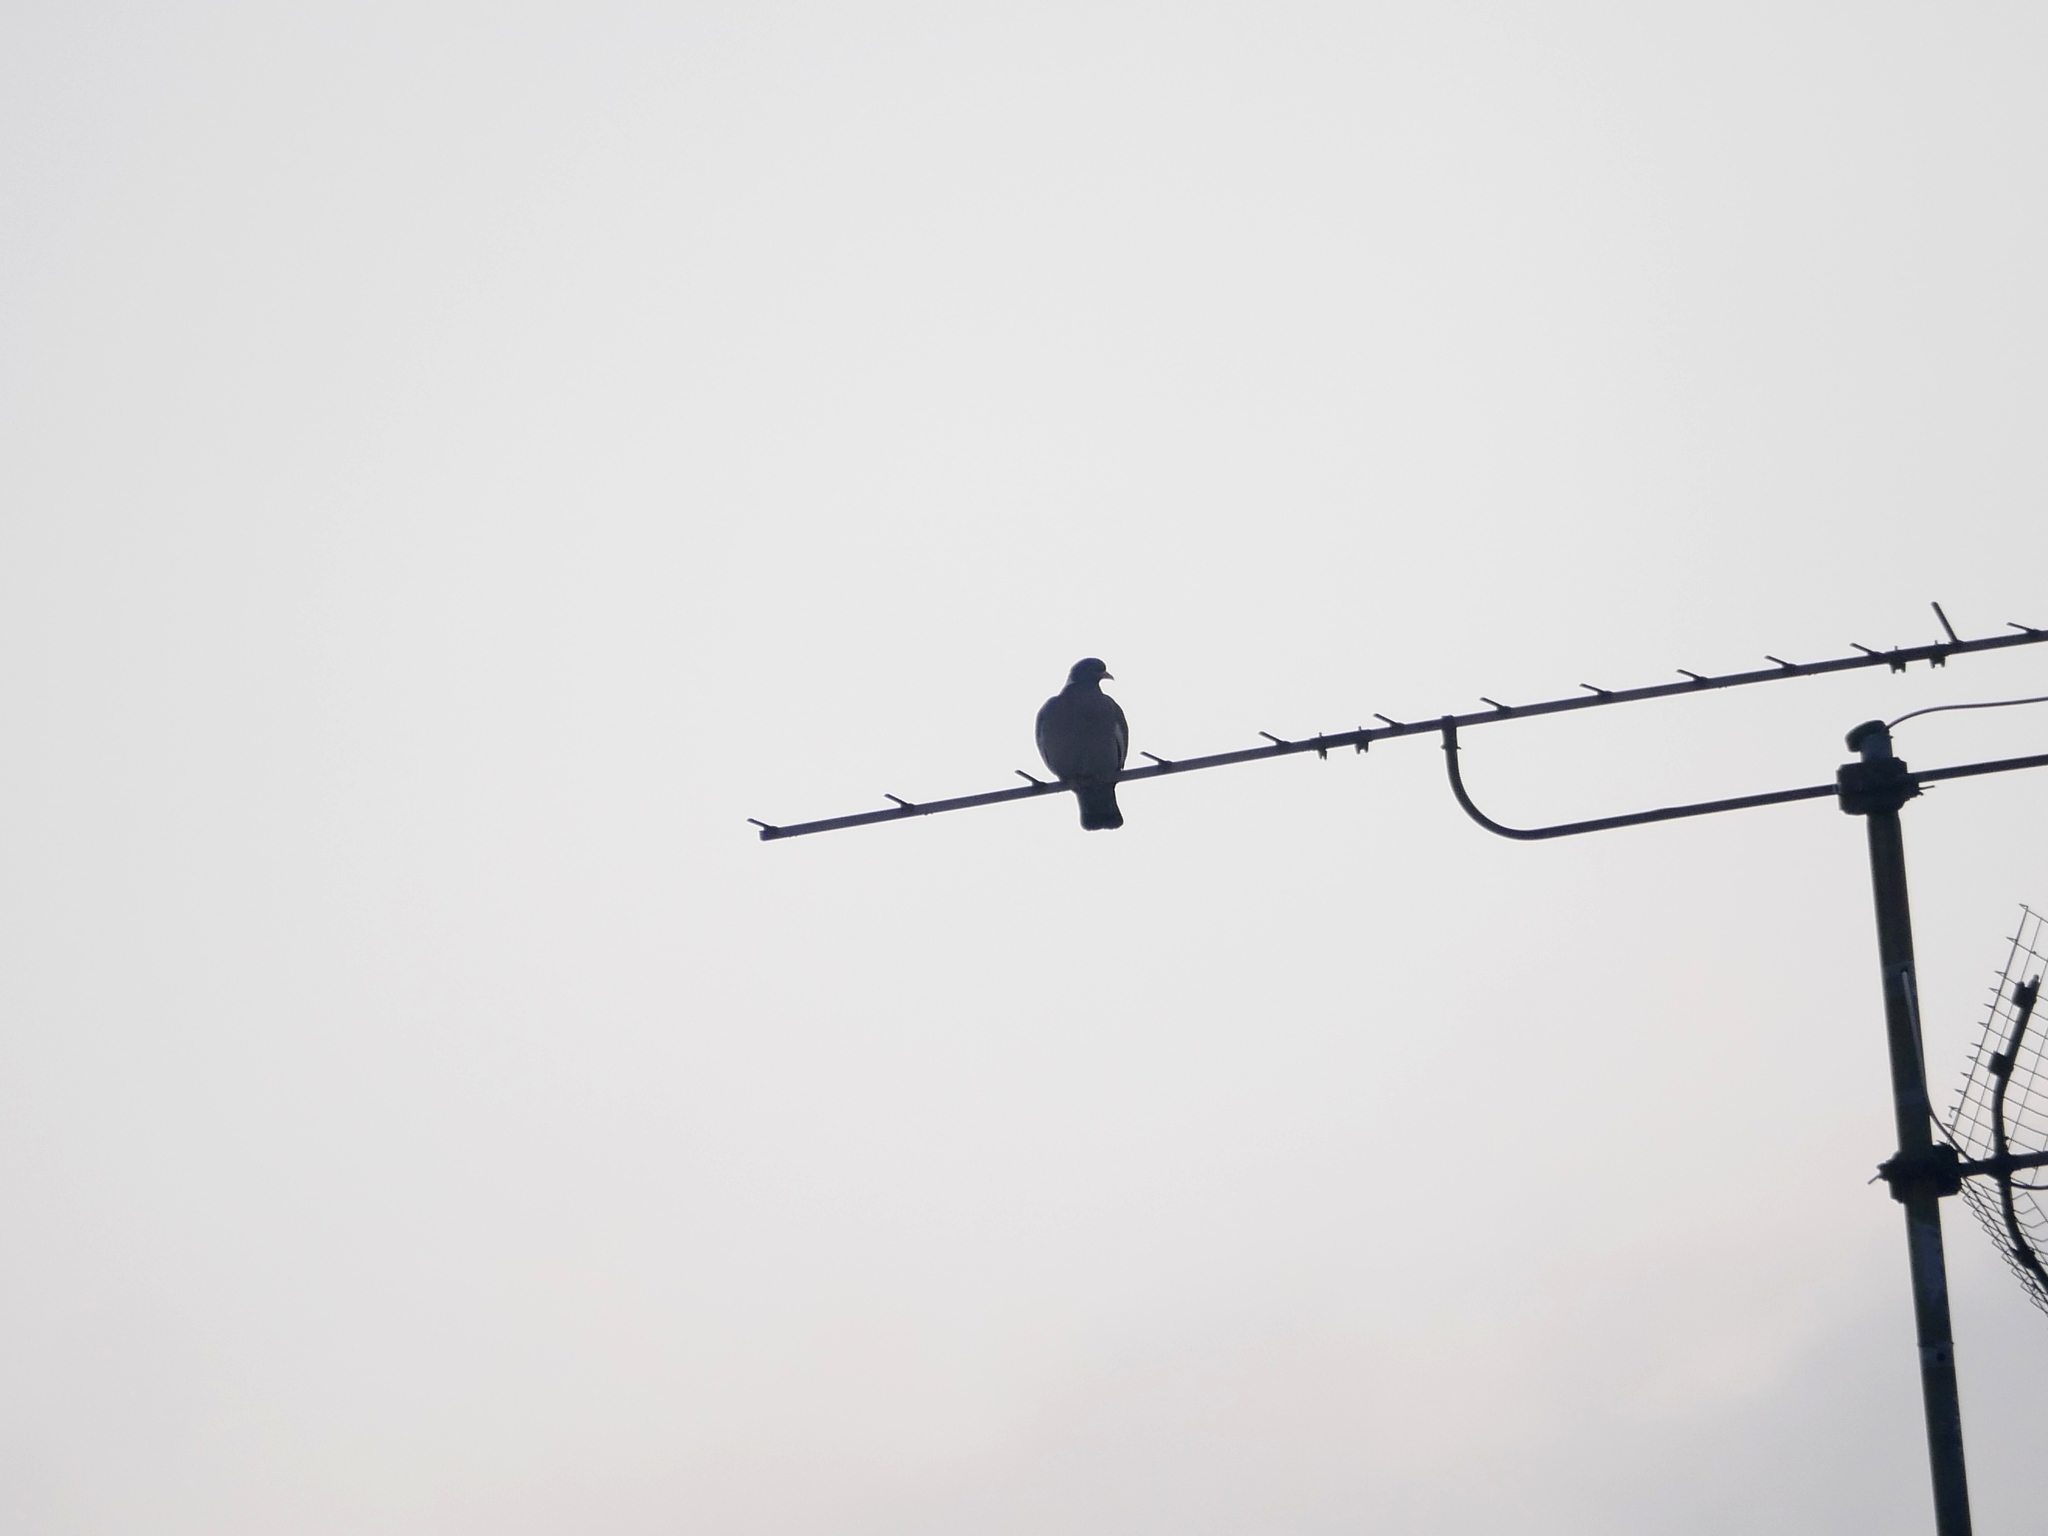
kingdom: Animalia
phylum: Chordata
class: Aves
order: Columbiformes
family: Columbidae
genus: Columba
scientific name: Columba palumbus
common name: Common wood pigeon
